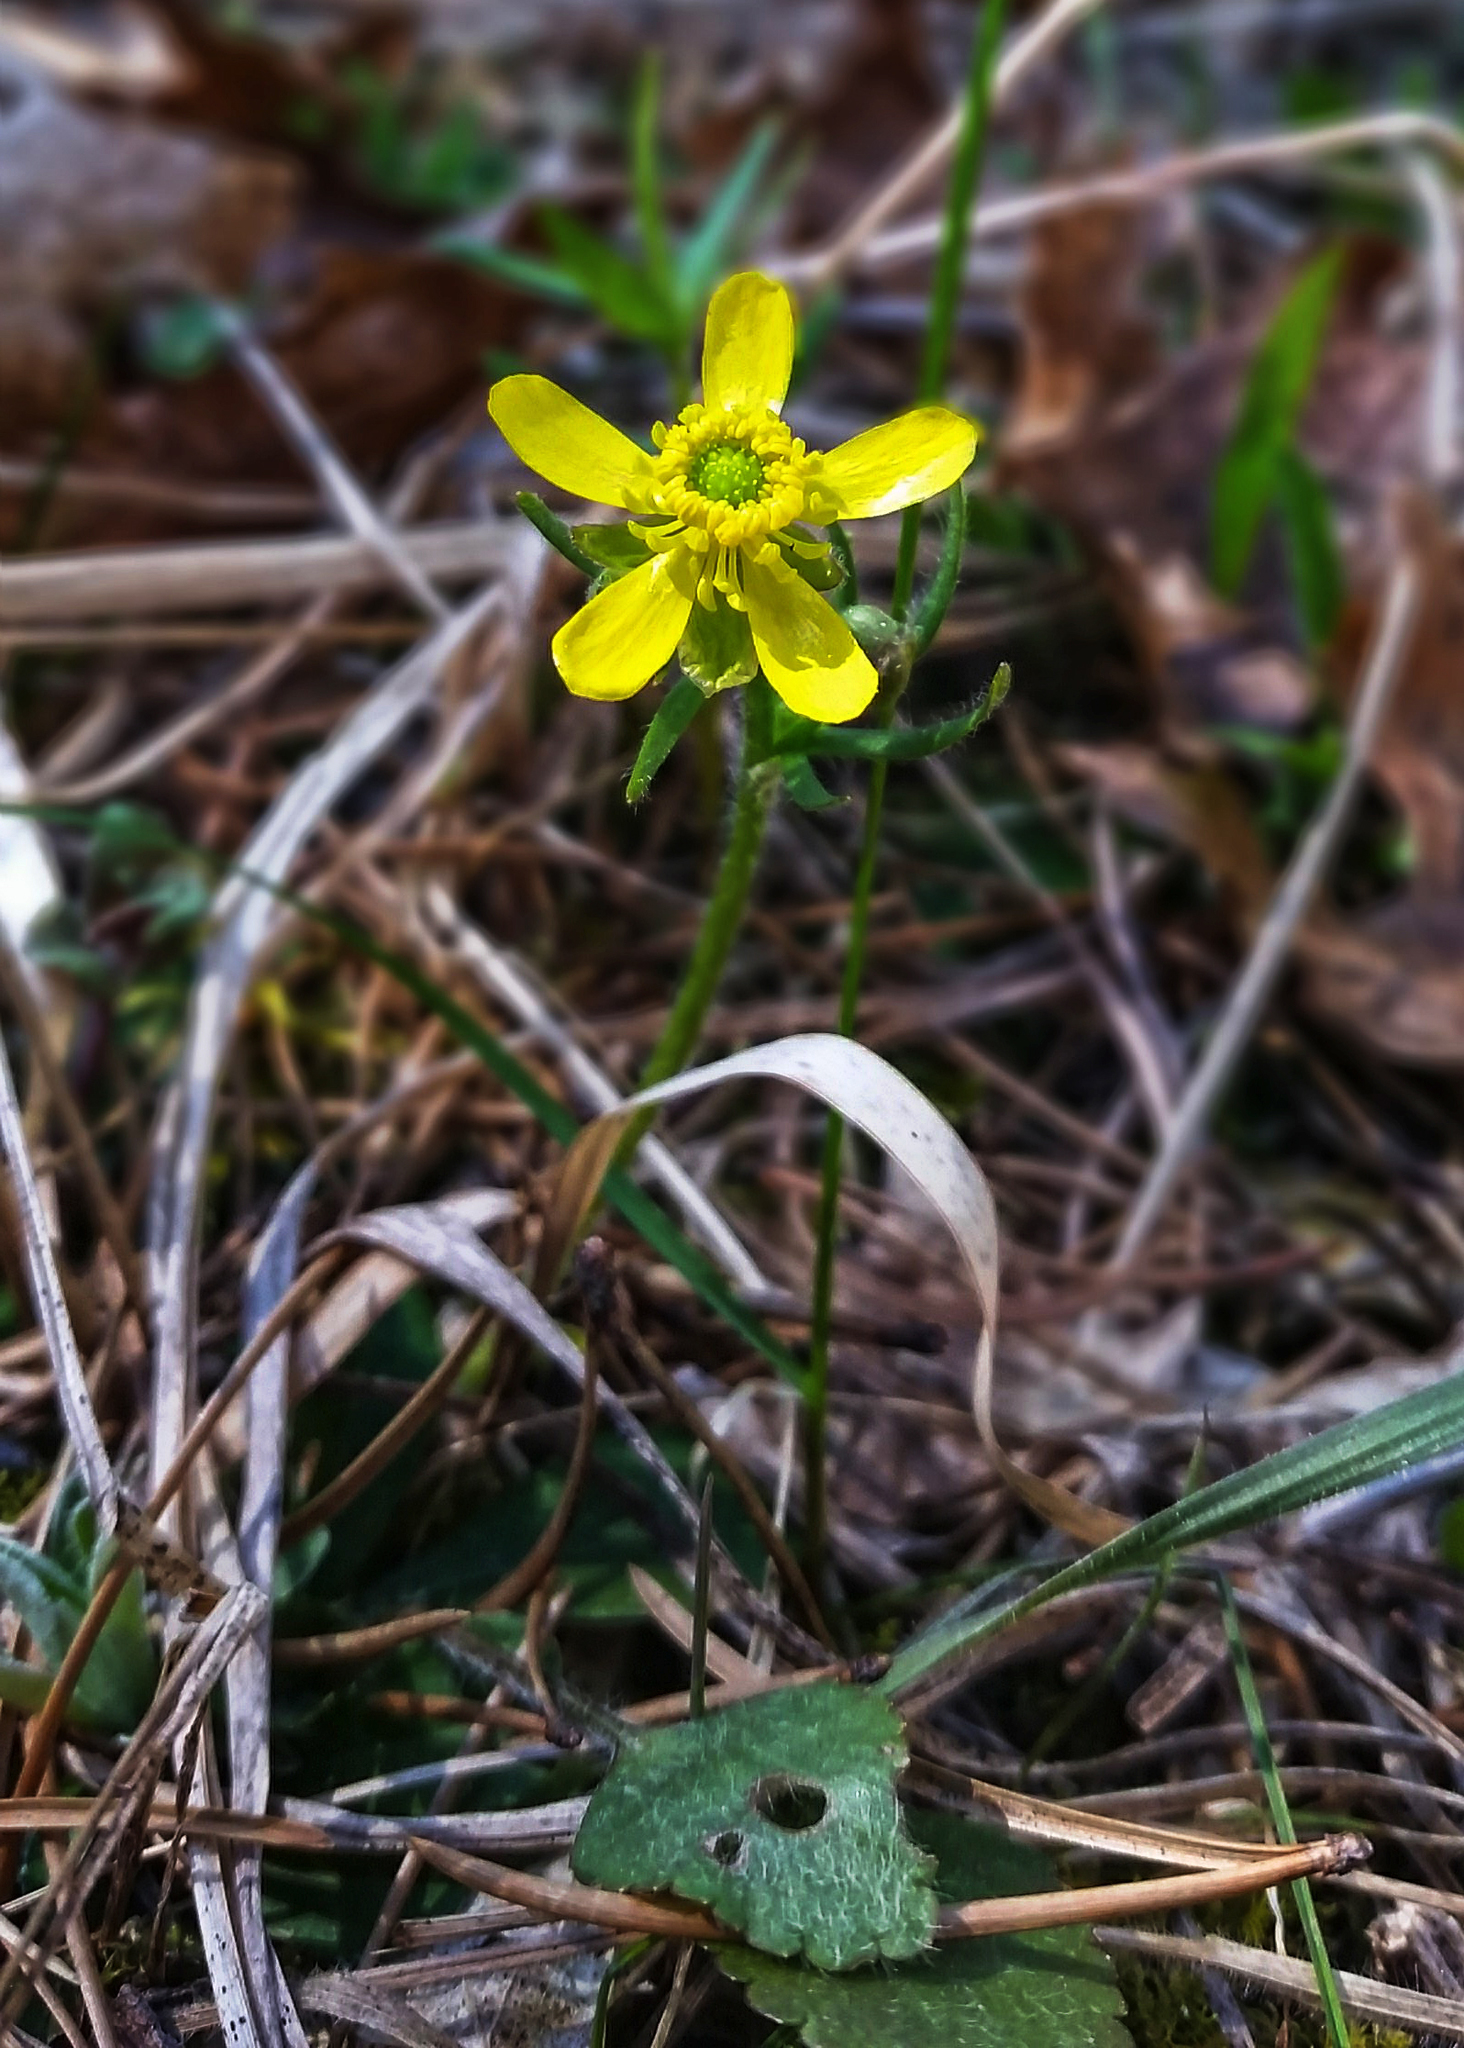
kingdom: Plantae
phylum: Tracheophyta
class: Magnoliopsida
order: Ranunculales
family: Ranunculaceae
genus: Ranunculus
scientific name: Ranunculus rhomboideus
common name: Prairie buttercup
